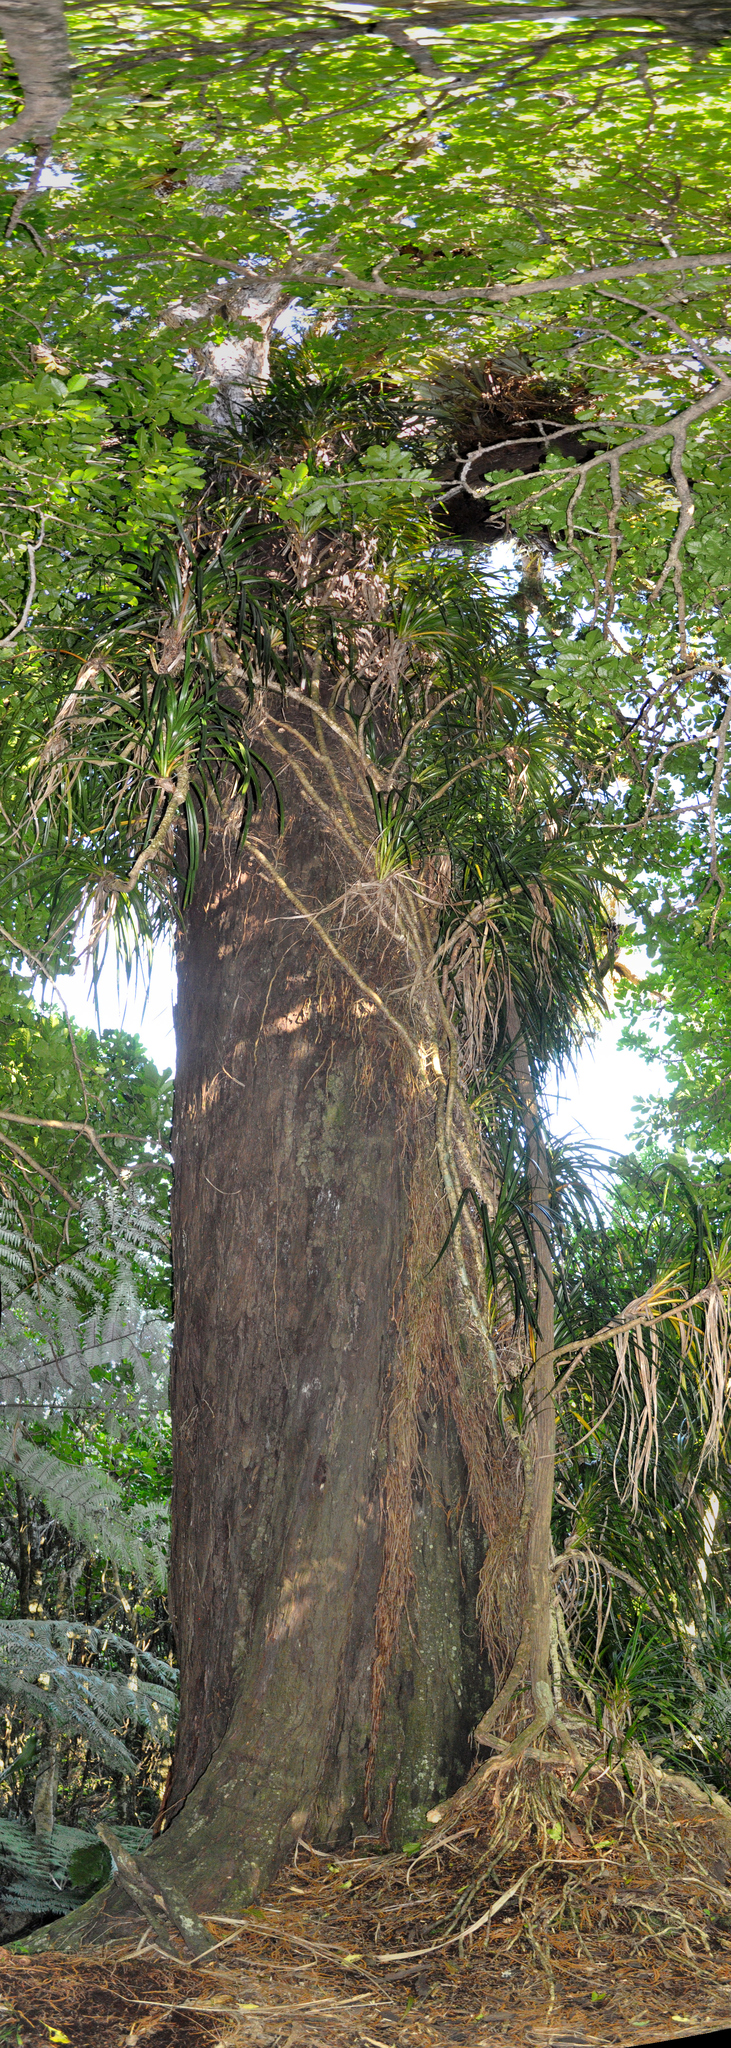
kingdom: Plantae
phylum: Tracheophyta
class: Pinopsida
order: Pinales
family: Podocarpaceae
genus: Dacrydium
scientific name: Dacrydium cupressinum
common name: Red pine
